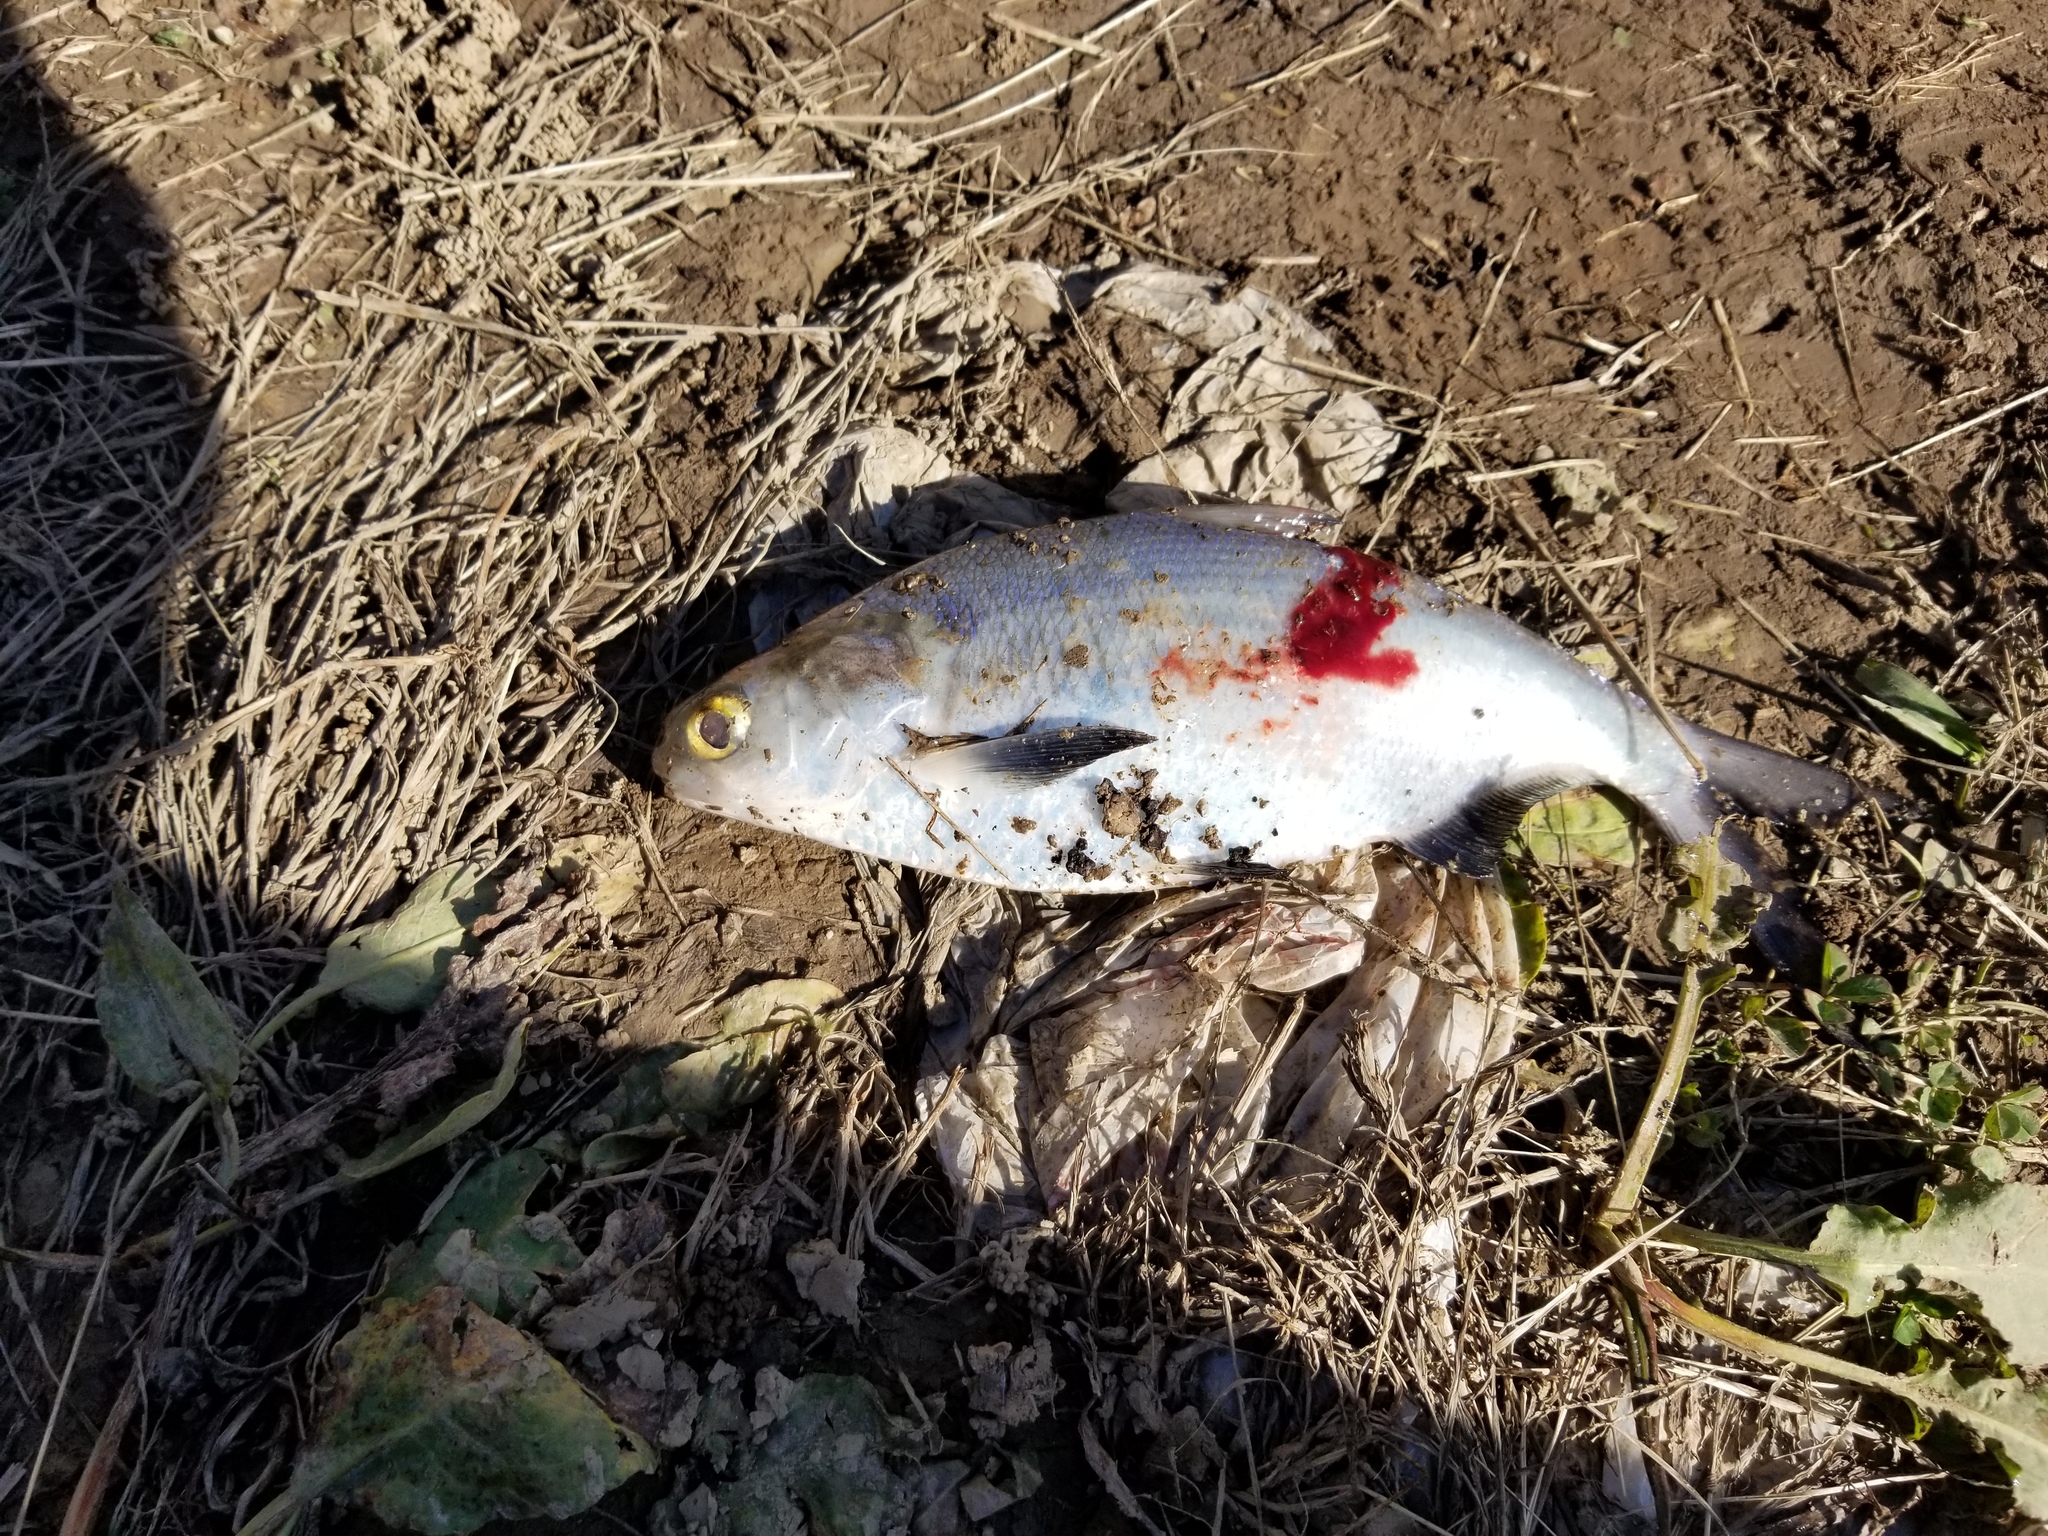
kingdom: Animalia
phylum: Chordata
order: Clupeiformes
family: Clupeidae
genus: Dorosoma
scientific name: Dorosoma cepedianum
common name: Gizzard shad
